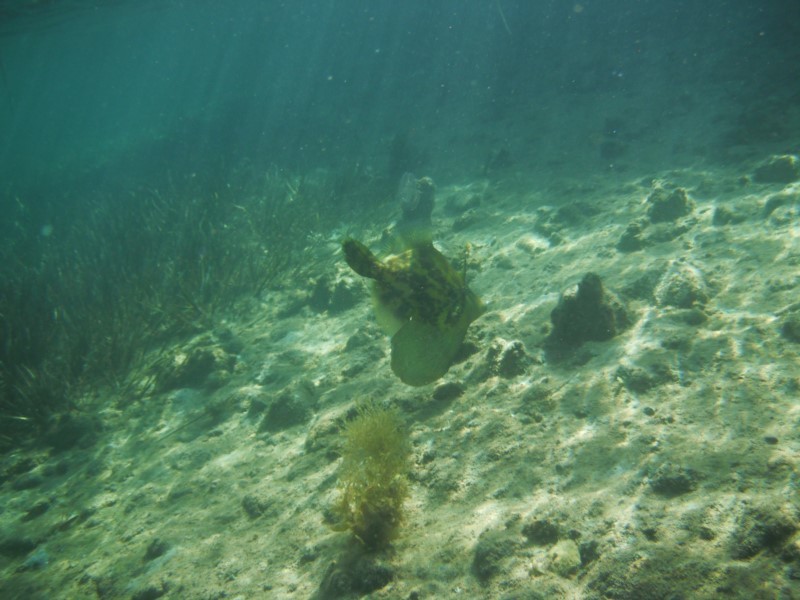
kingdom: Animalia
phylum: Chordata
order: Tetraodontiformes
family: Monacanthidae
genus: Monacanthus
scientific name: Monacanthus chinensis
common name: Centreboard leatherjacket
